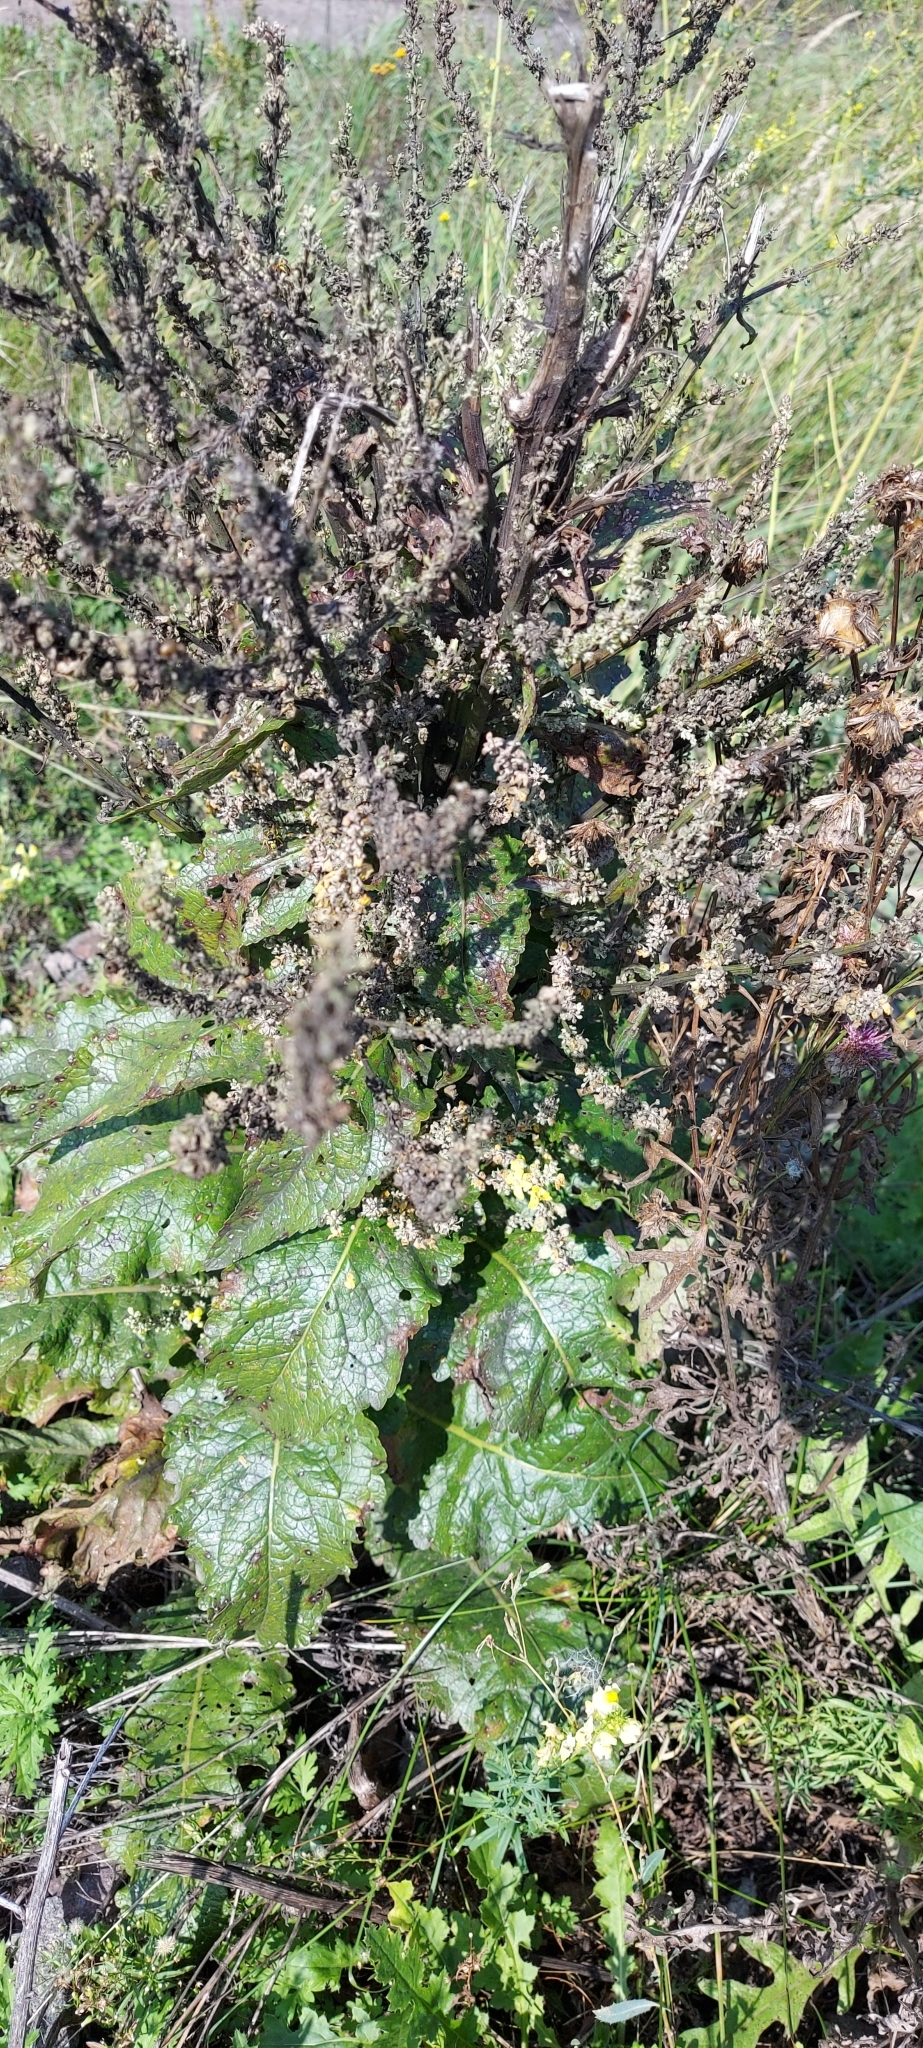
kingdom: Plantae
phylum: Tracheophyta
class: Magnoliopsida
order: Lamiales
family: Scrophulariaceae
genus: Verbascum
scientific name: Verbascum lychnitis
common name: White mullein
